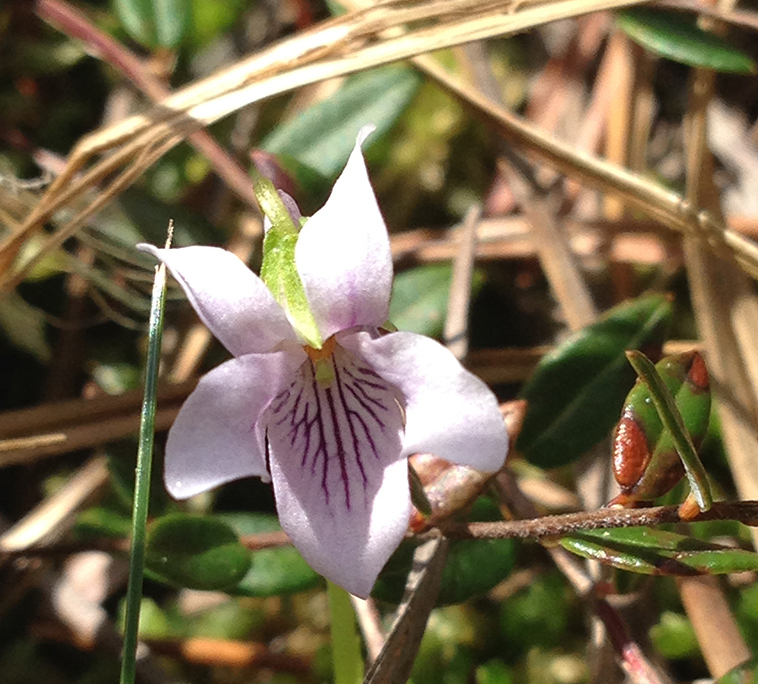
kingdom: Plantae
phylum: Tracheophyta
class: Magnoliopsida
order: Malpighiales
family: Violaceae
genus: Viola
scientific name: Viola palustris
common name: Marsh violet
